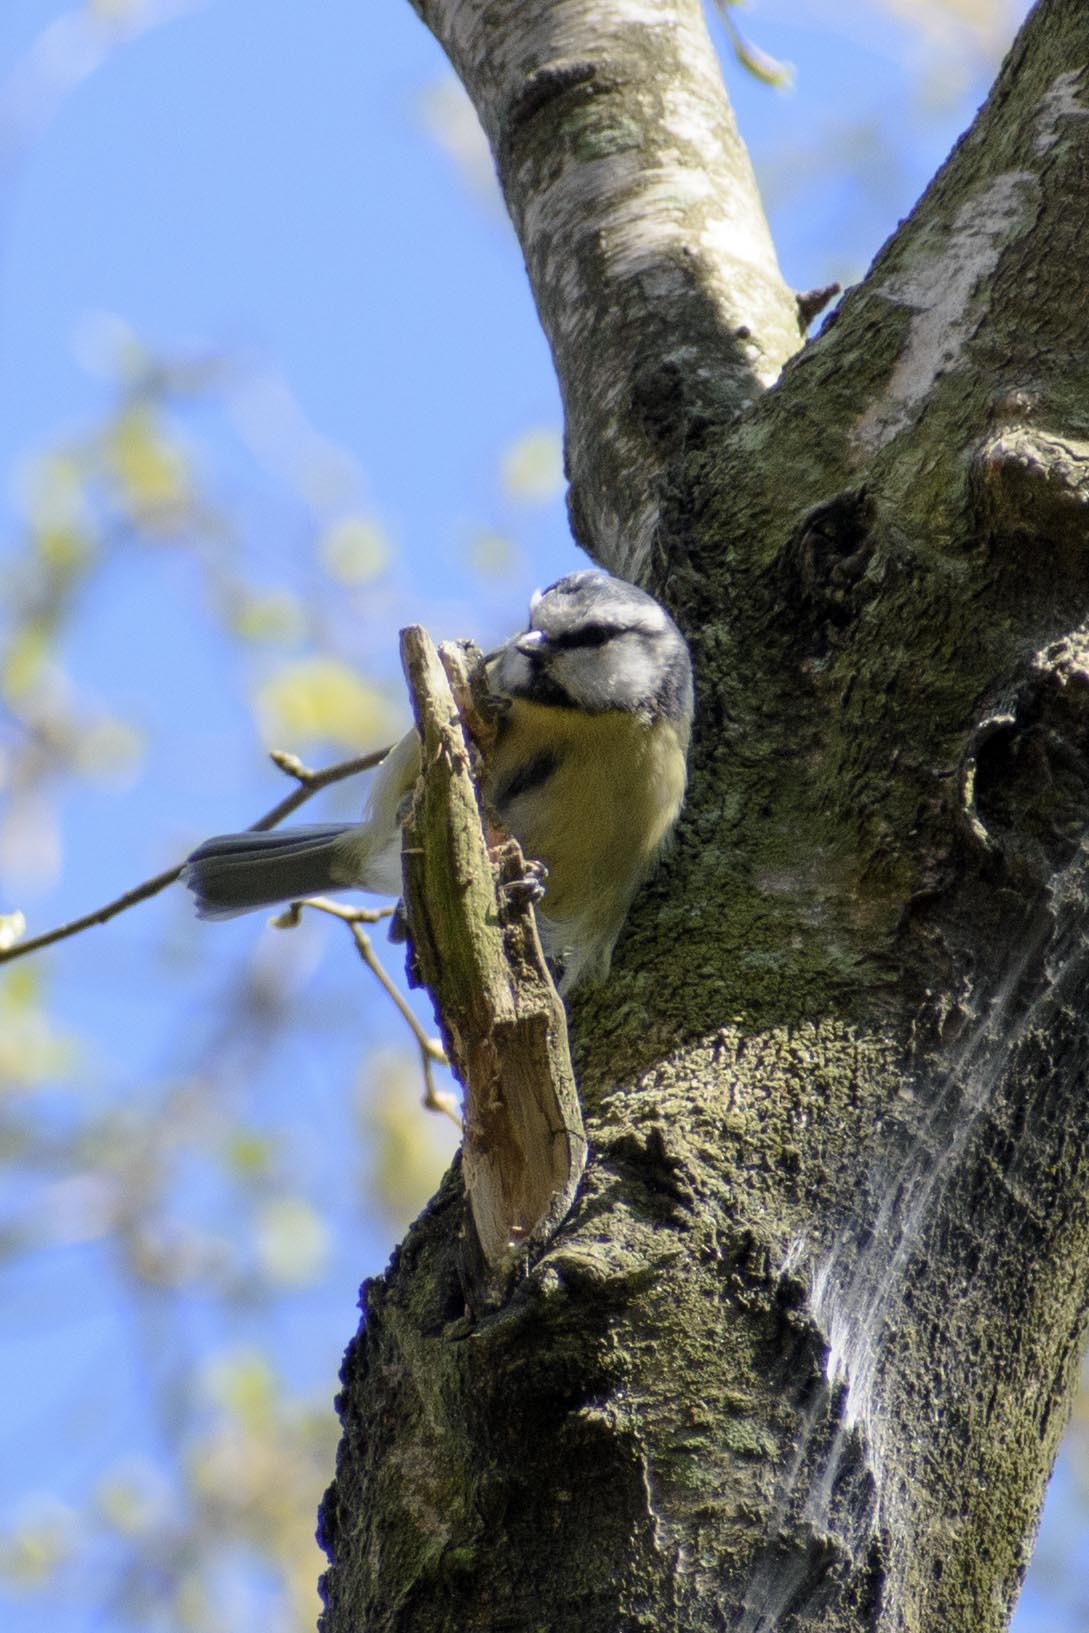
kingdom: Animalia
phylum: Chordata
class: Aves
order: Passeriformes
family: Paridae
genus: Cyanistes
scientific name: Cyanistes caeruleus
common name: Eurasian blue tit
